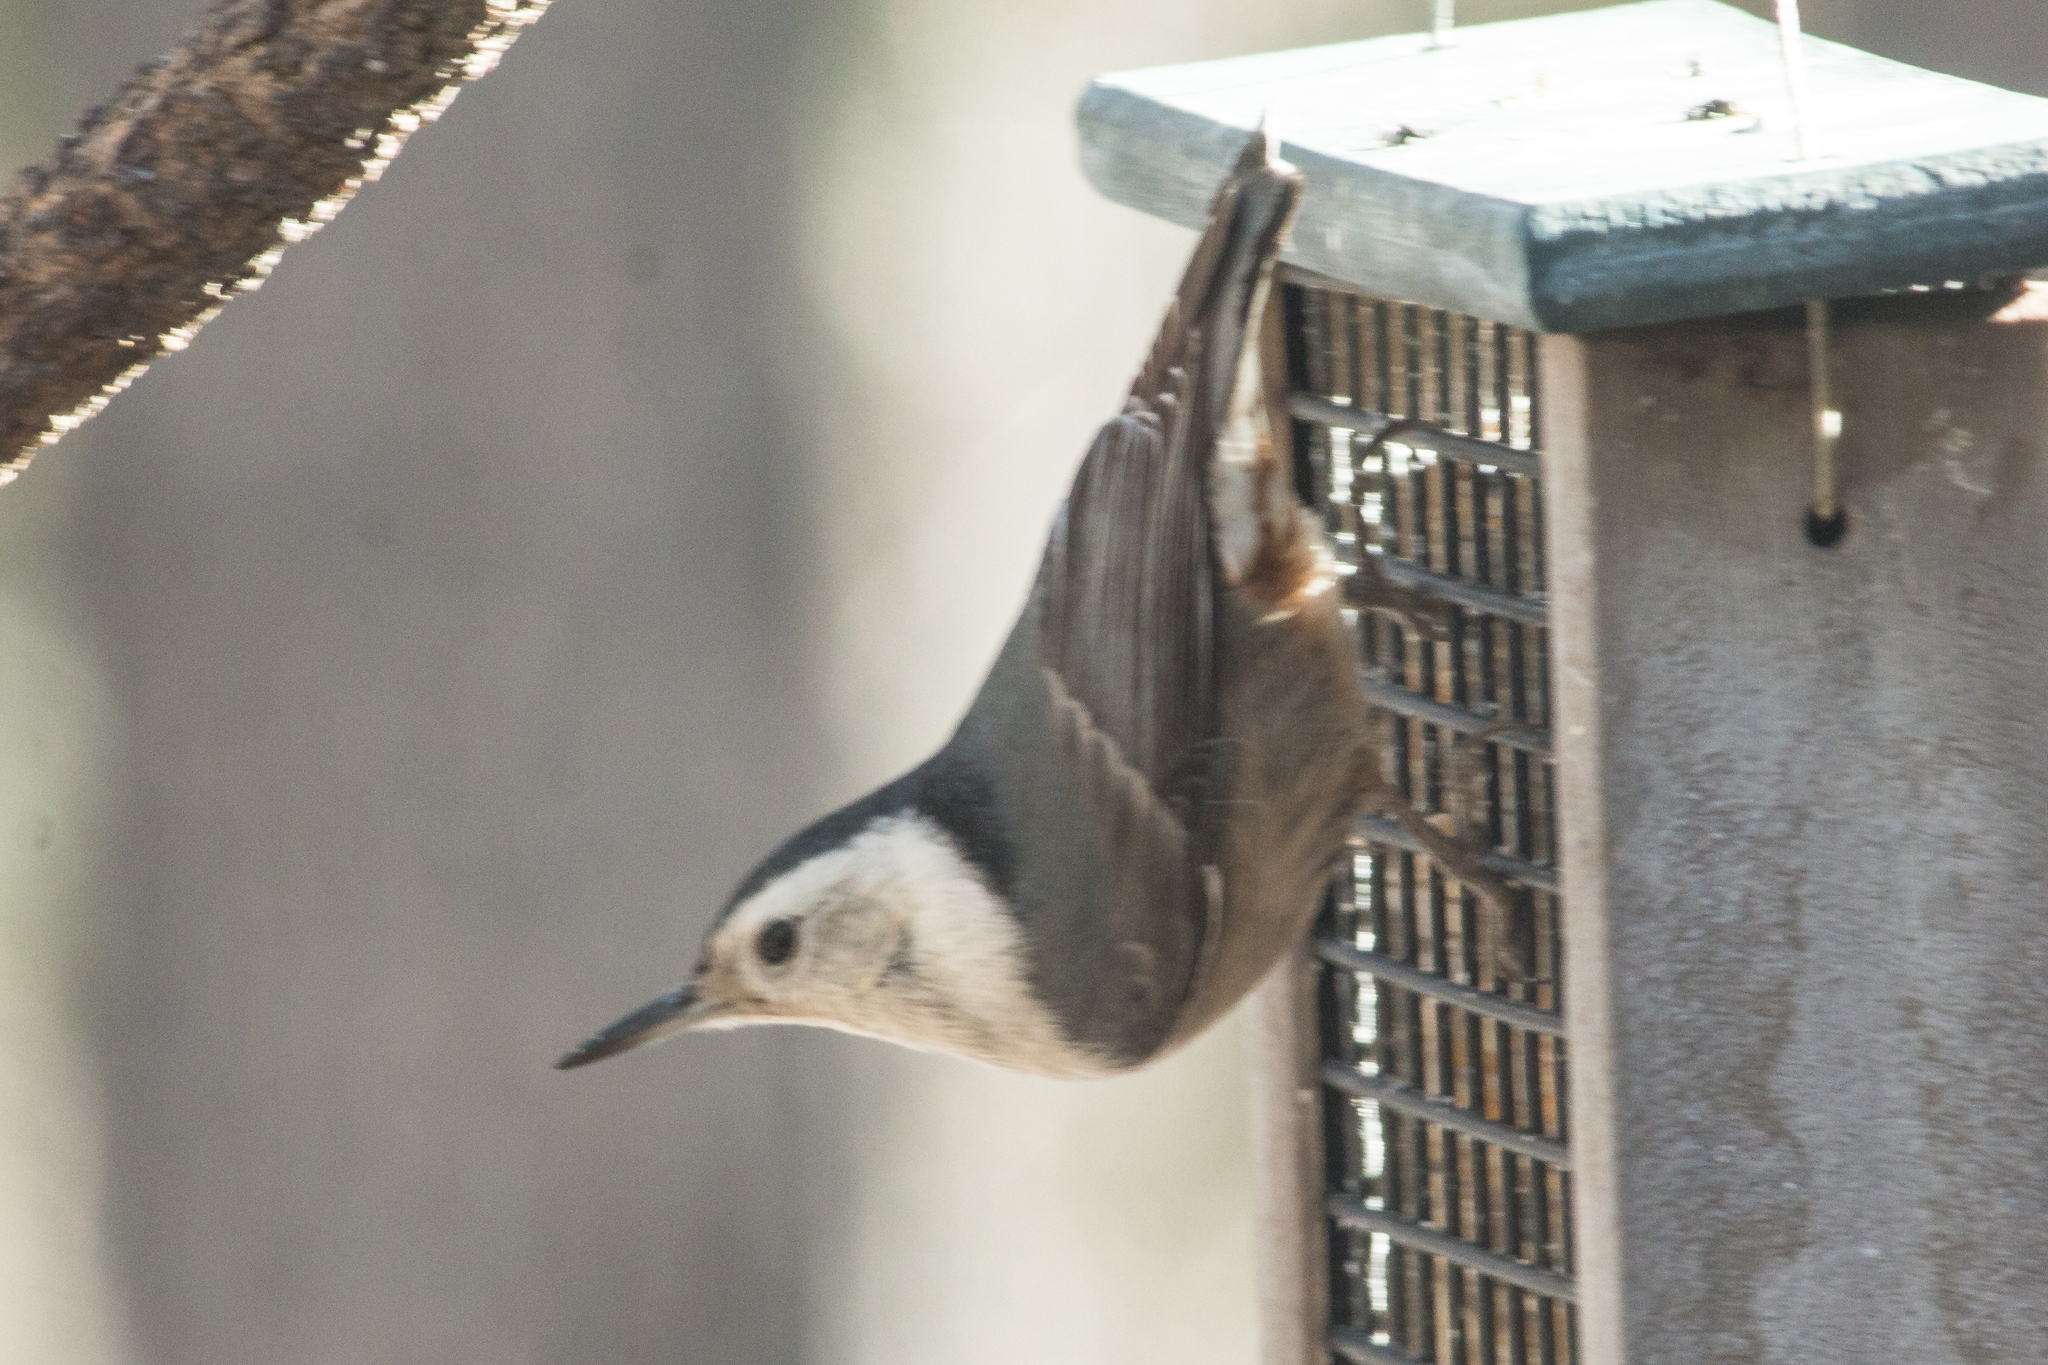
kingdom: Animalia
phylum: Chordata
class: Aves
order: Passeriformes
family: Sittidae
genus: Sitta
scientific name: Sitta carolinensis
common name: White-breasted nuthatch
